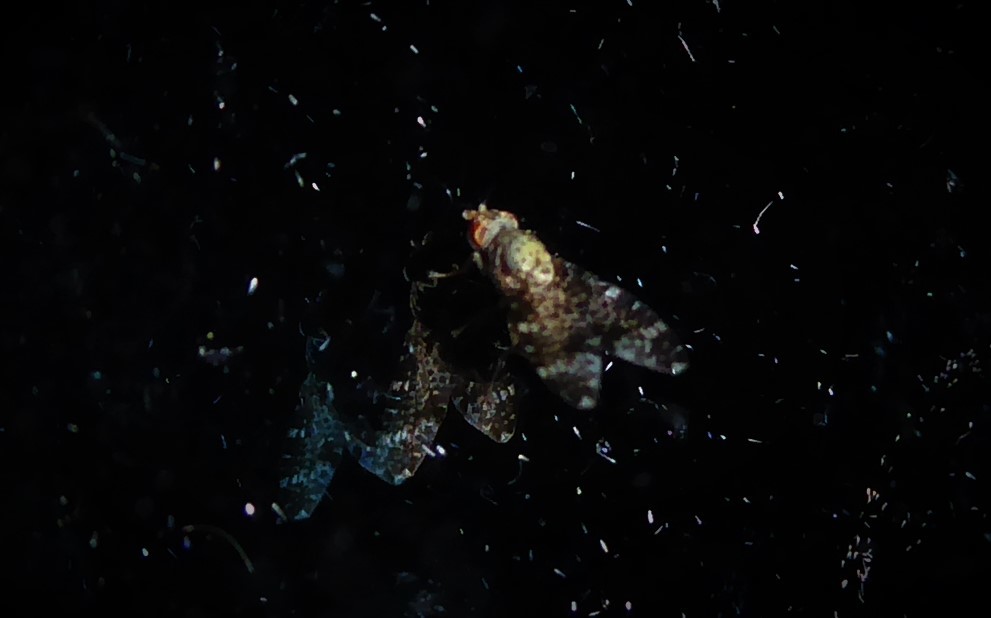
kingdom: Animalia
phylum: Arthropoda
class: Insecta
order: Diptera
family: Tephritidae
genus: Sphenella
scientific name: Sphenella
